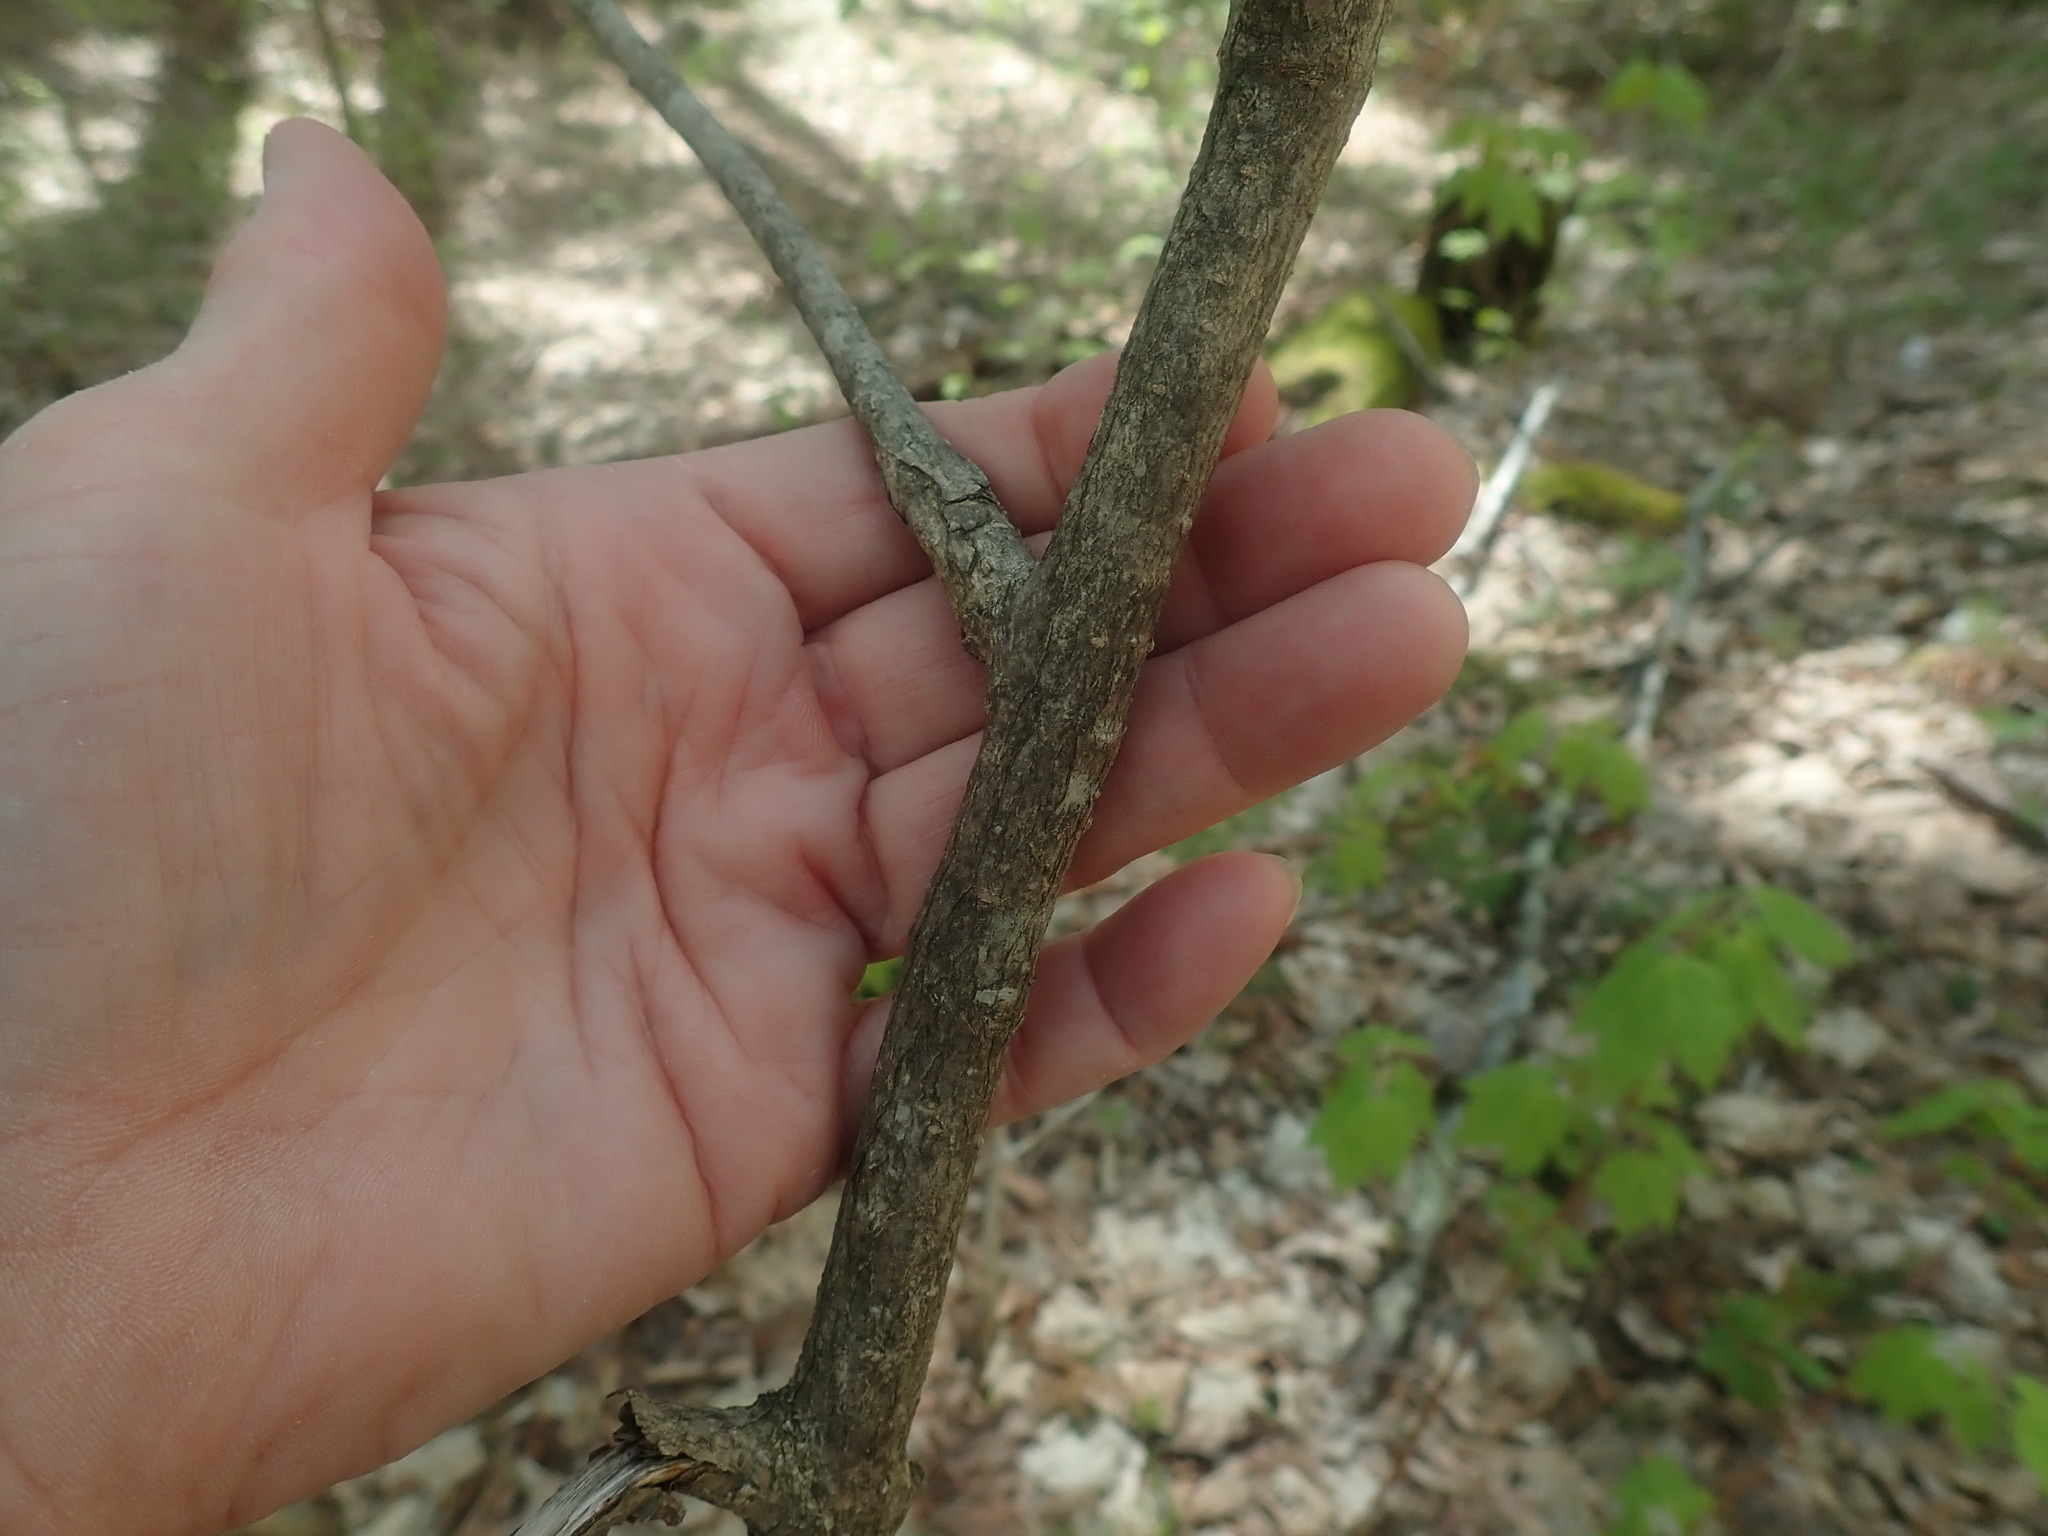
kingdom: Plantae
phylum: Tracheophyta
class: Magnoliopsida
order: Sapindales
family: Sapindaceae
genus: Acer
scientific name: Acer spicatum
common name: Mountain maple
